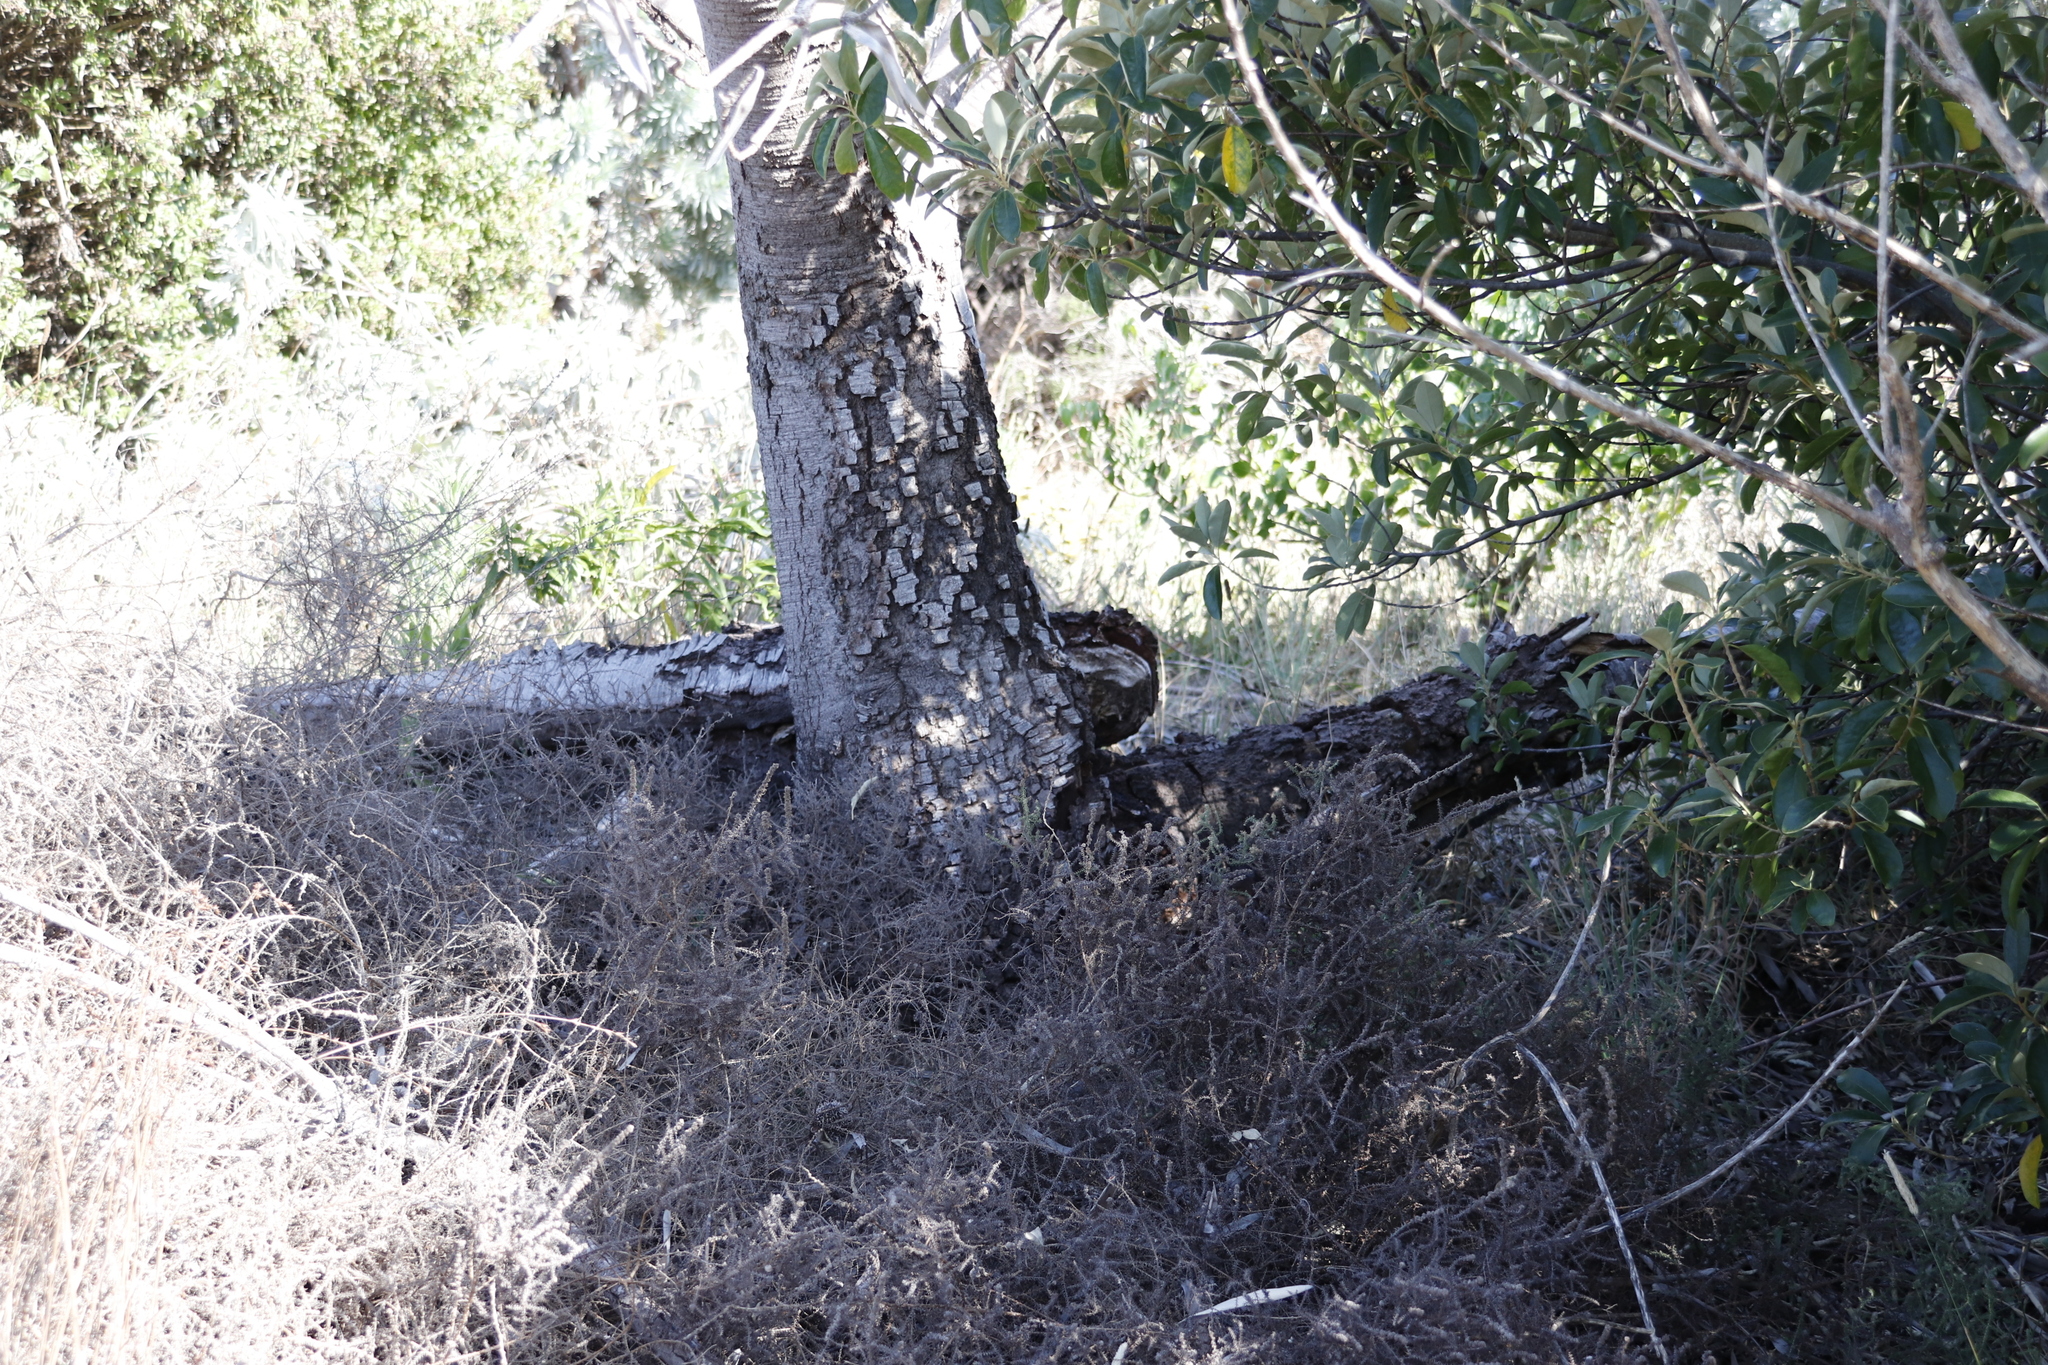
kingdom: Plantae
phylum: Tracheophyta
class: Magnoliopsida
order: Proteales
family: Proteaceae
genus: Leucadendron
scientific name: Leucadendron argenteum
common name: Cape silver tree
